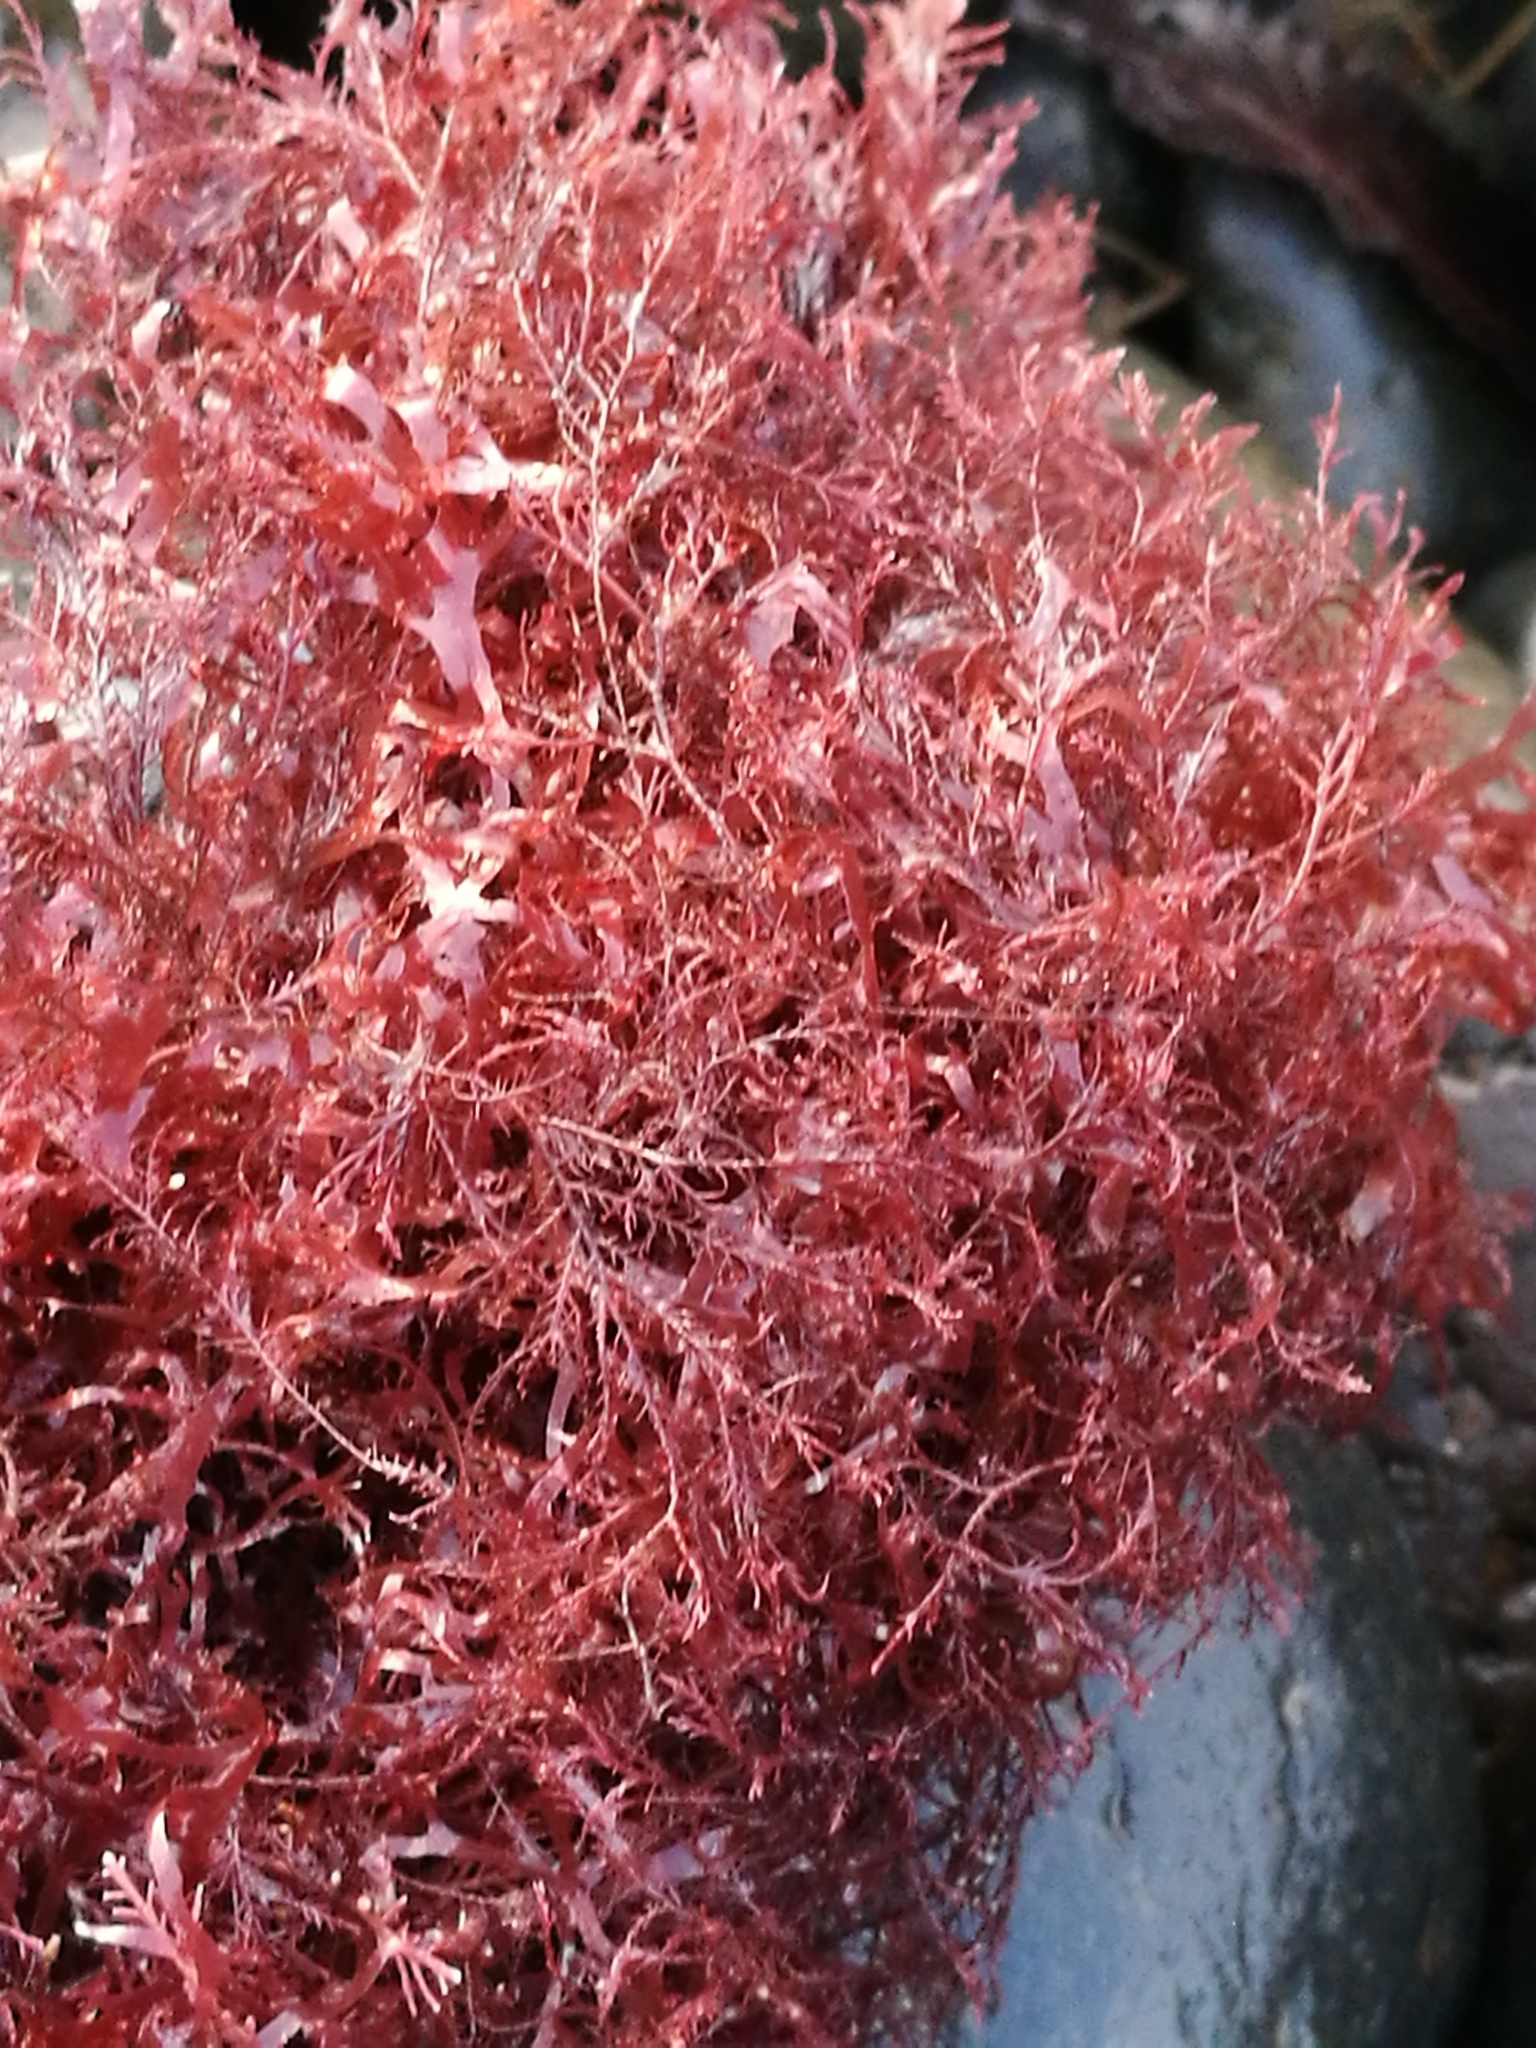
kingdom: Plantae
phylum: Rhodophyta
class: Florideophyceae
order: Ceramiales
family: Rhodomelaceae
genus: Streblocladia
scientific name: Streblocladia glomerulata
